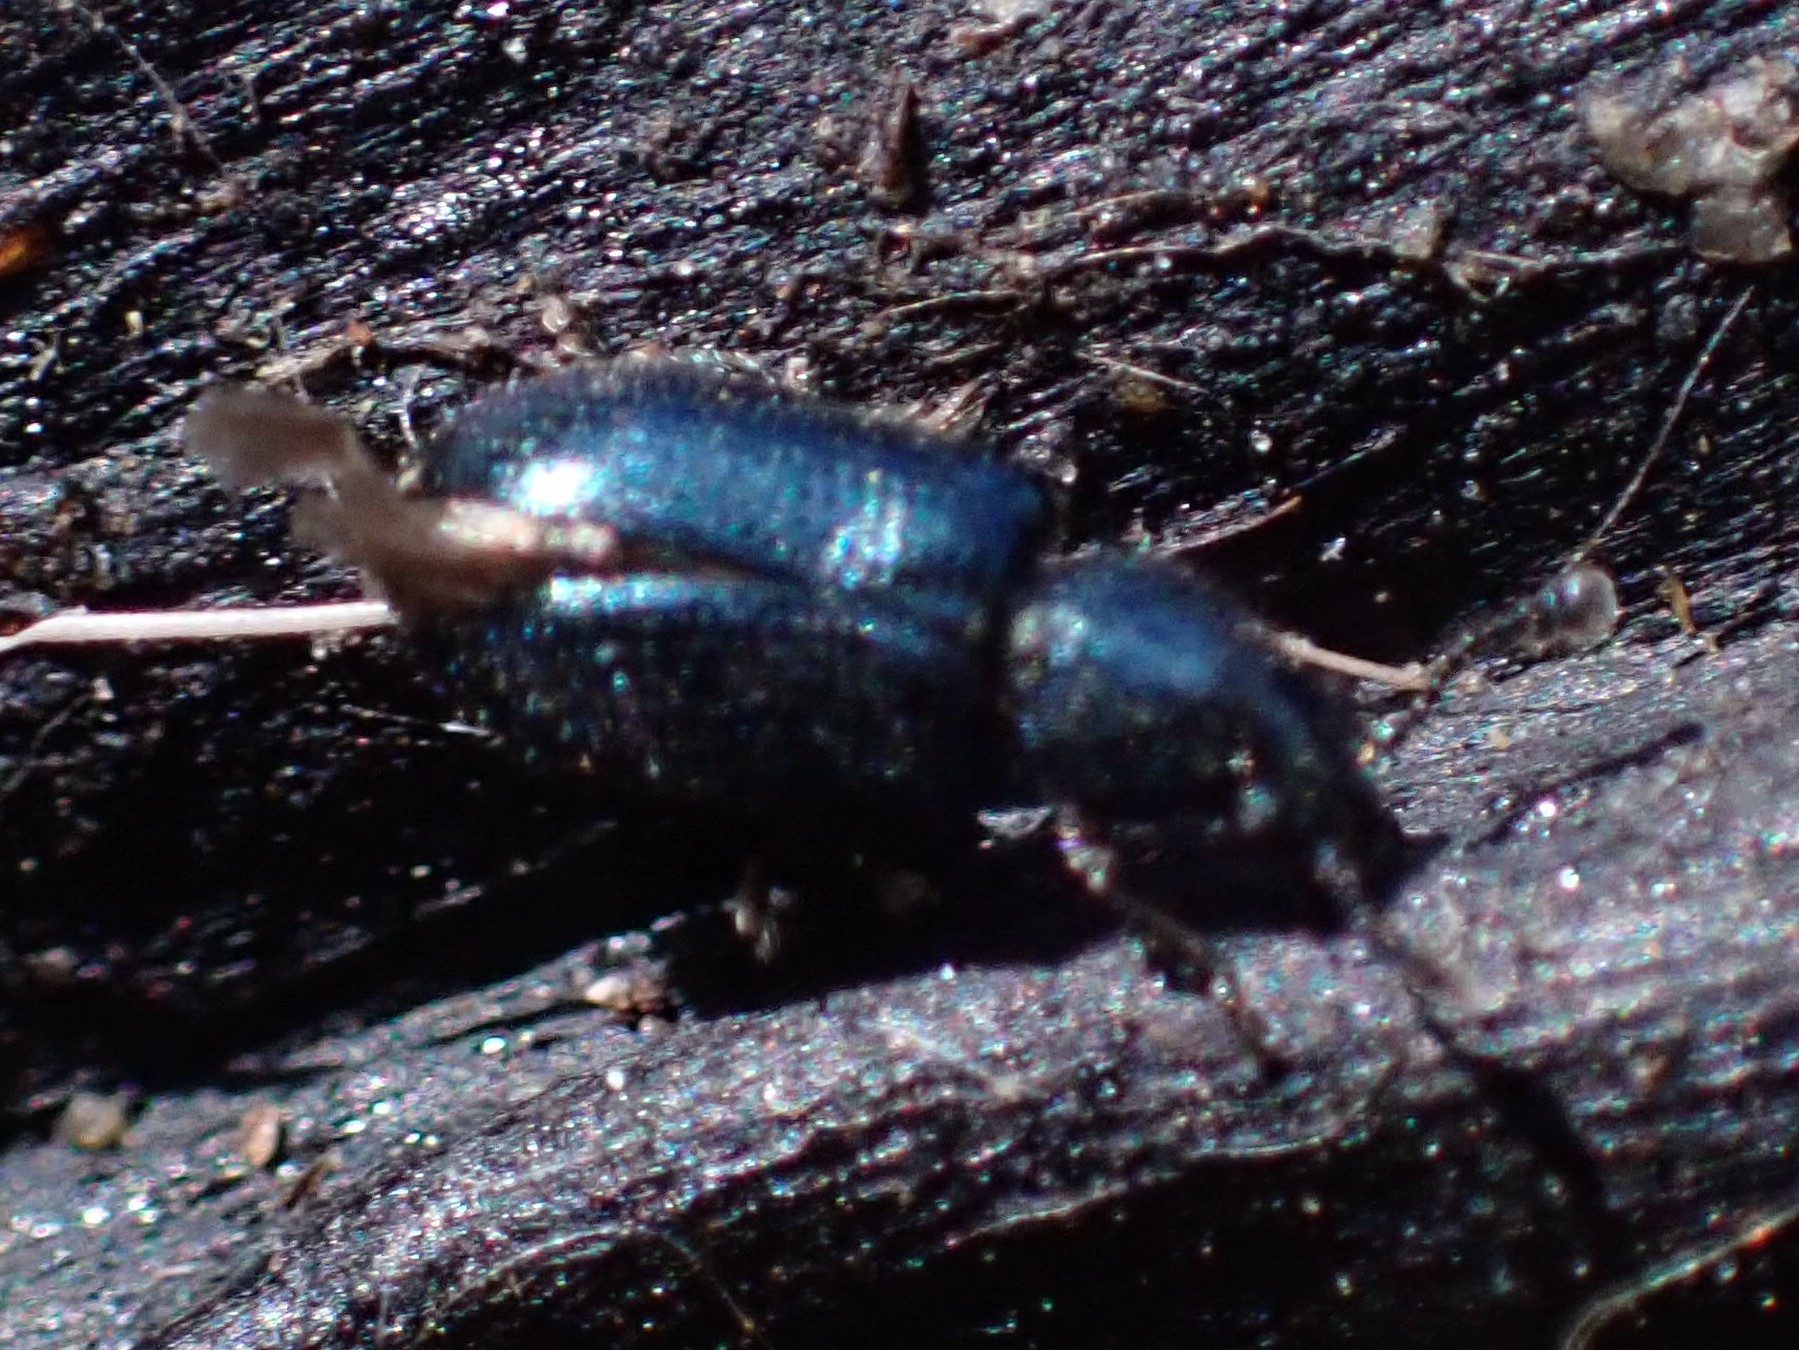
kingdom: Animalia
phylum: Arthropoda
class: Insecta
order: Coleoptera
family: Cleridae
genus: Necrobia
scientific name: Necrobia violacea
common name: Violet checkered beetle
